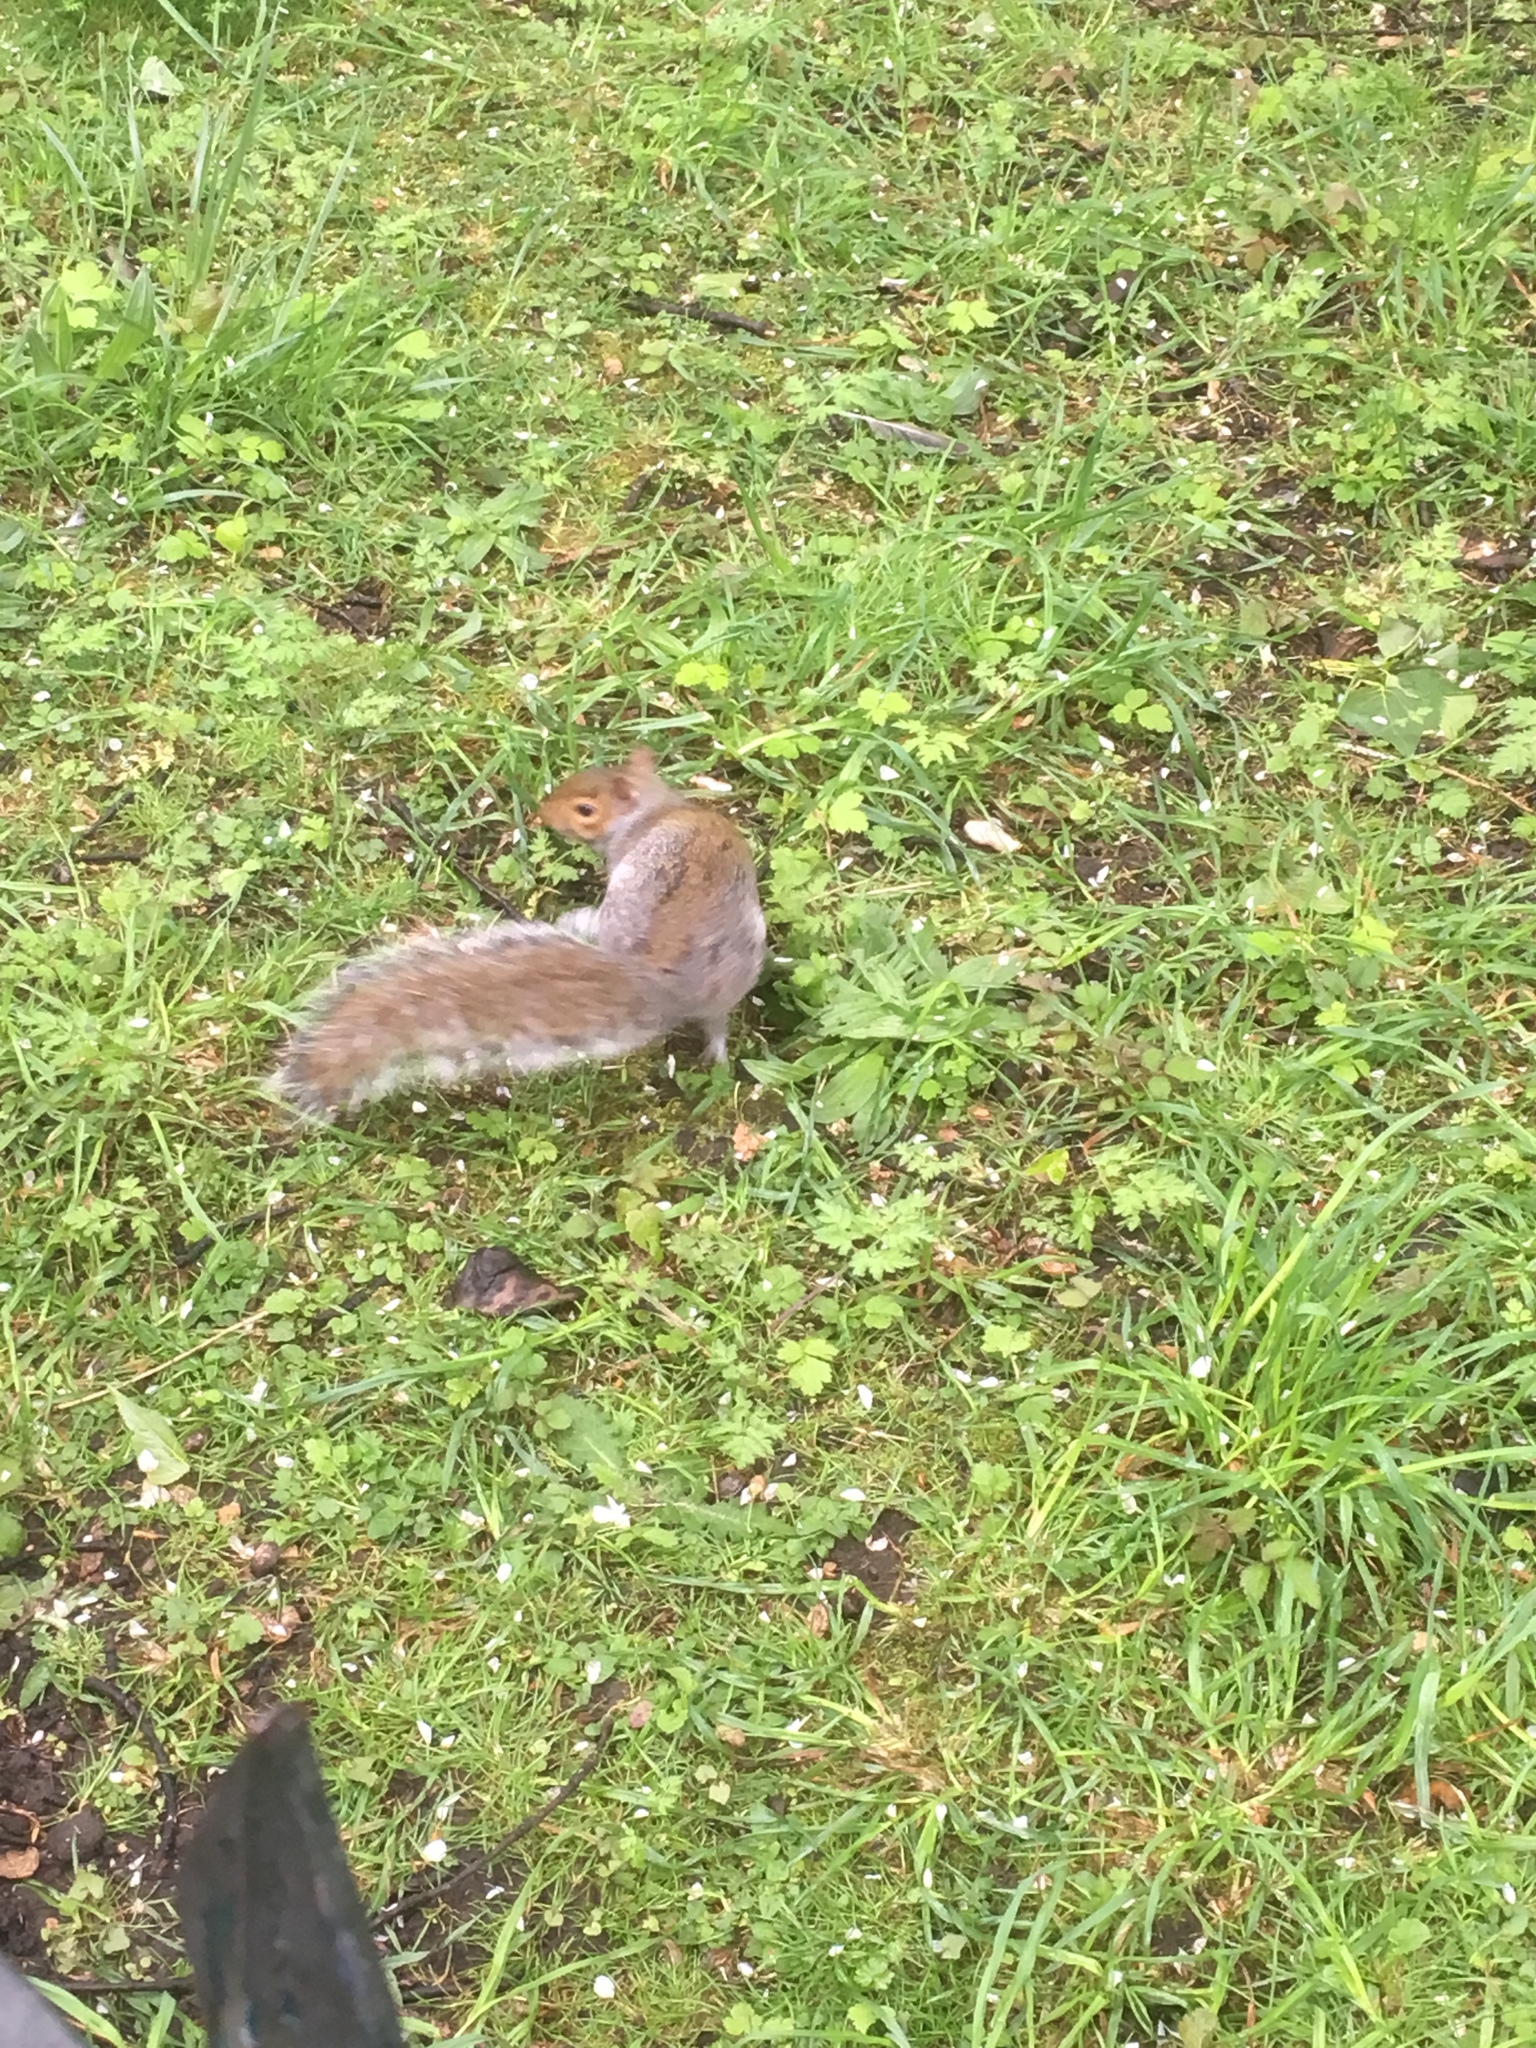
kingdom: Animalia
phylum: Chordata
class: Mammalia
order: Rodentia
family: Sciuridae
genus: Sciurus
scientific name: Sciurus carolinensis
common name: Eastern gray squirrel
